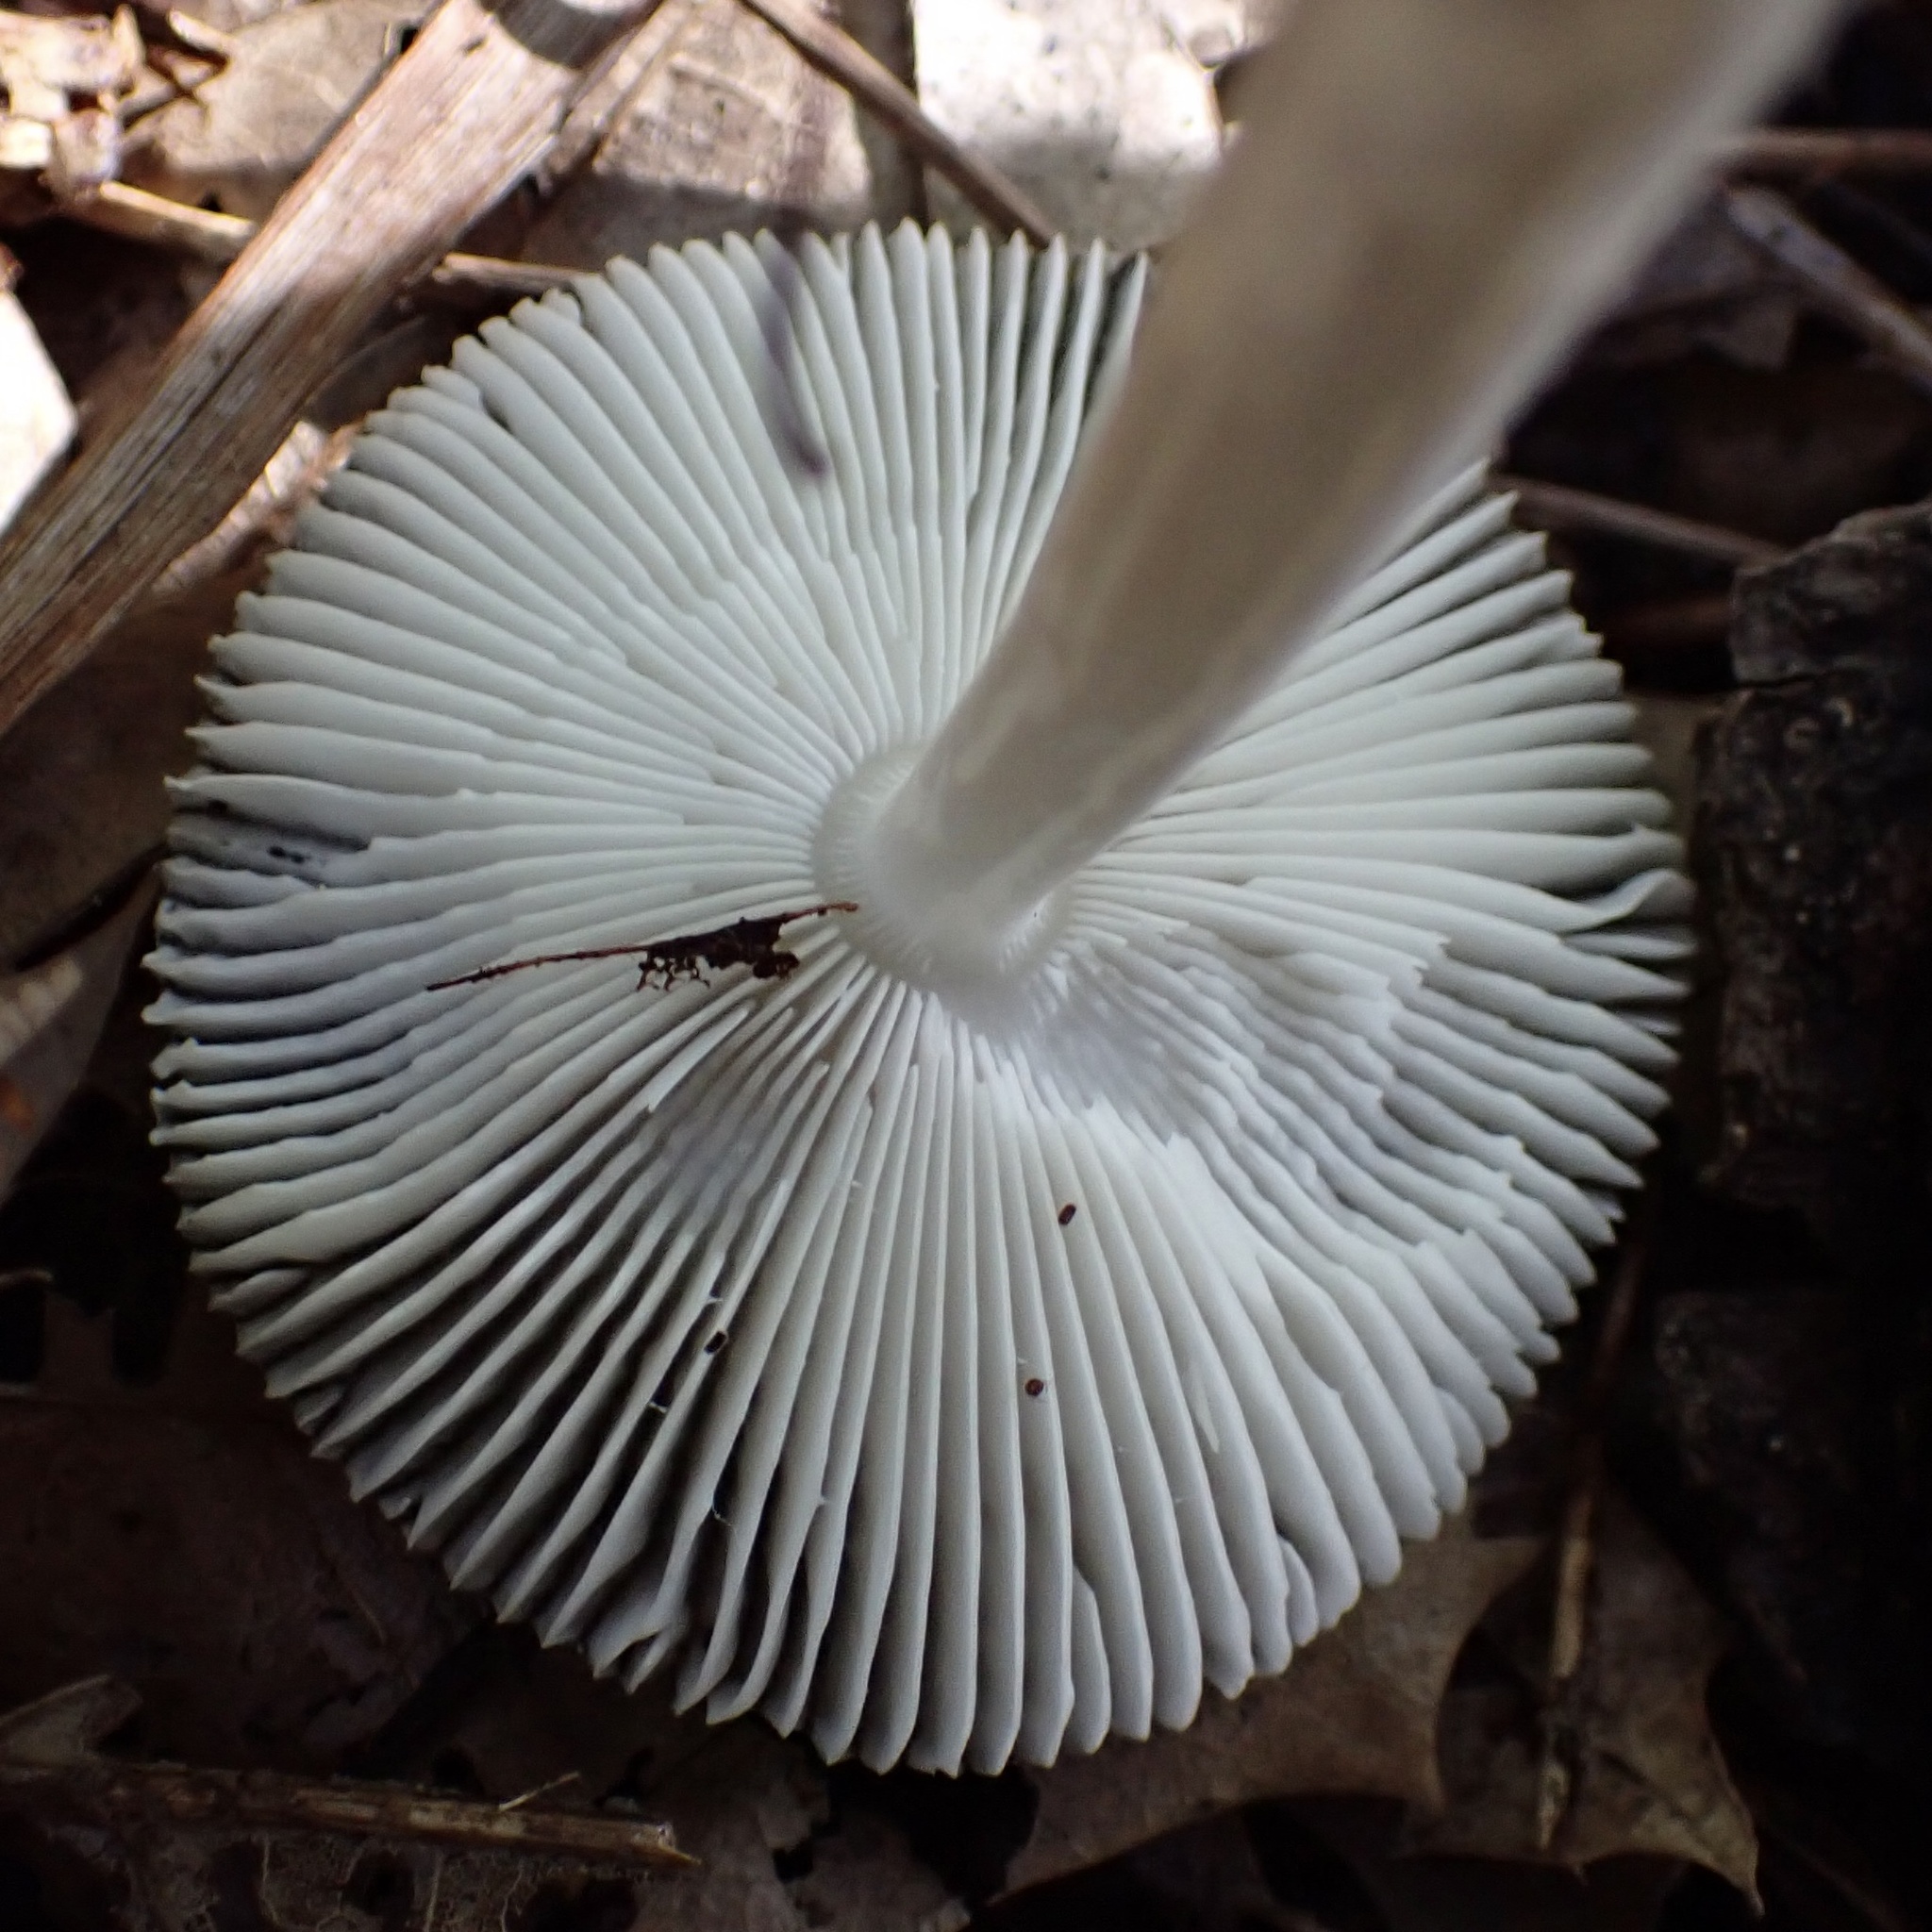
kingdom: Fungi
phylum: Basidiomycota
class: Agaricomycetes
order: Agaricales
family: Amanitaceae
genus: Amanita
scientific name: Amanita vaginata
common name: Grisette
